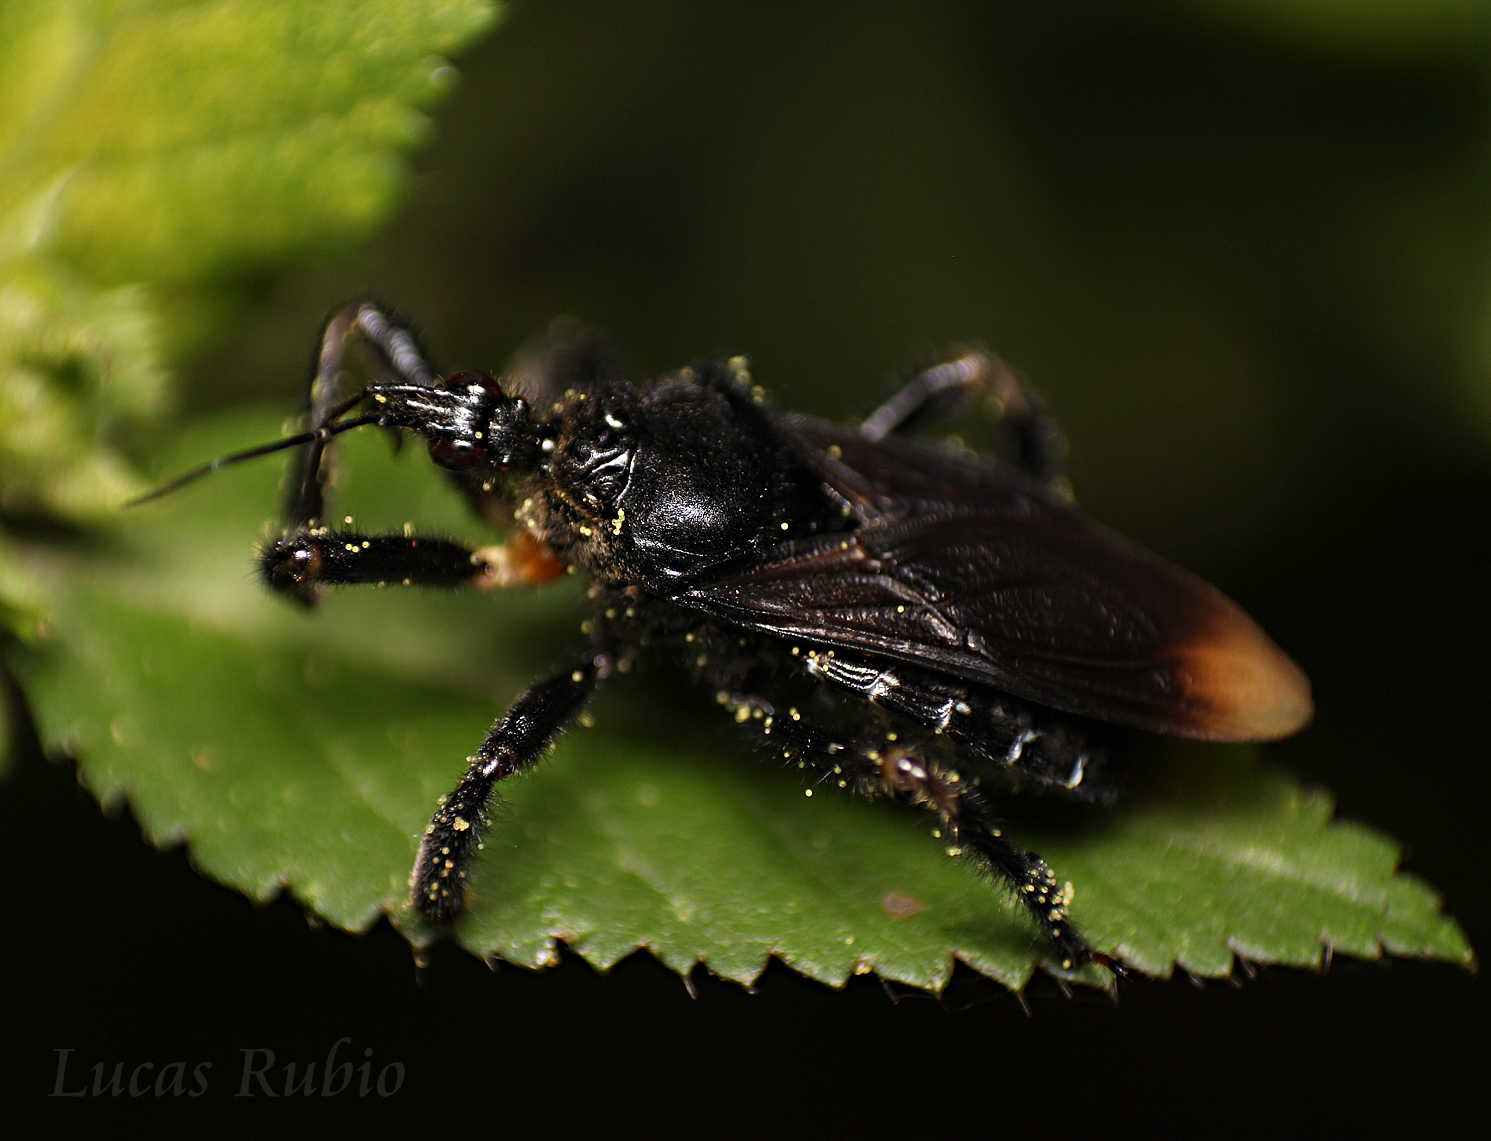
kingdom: Animalia
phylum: Arthropoda
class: Insecta
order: Hemiptera
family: Reduviidae
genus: Apiomerus
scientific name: Apiomerus mutabilis
